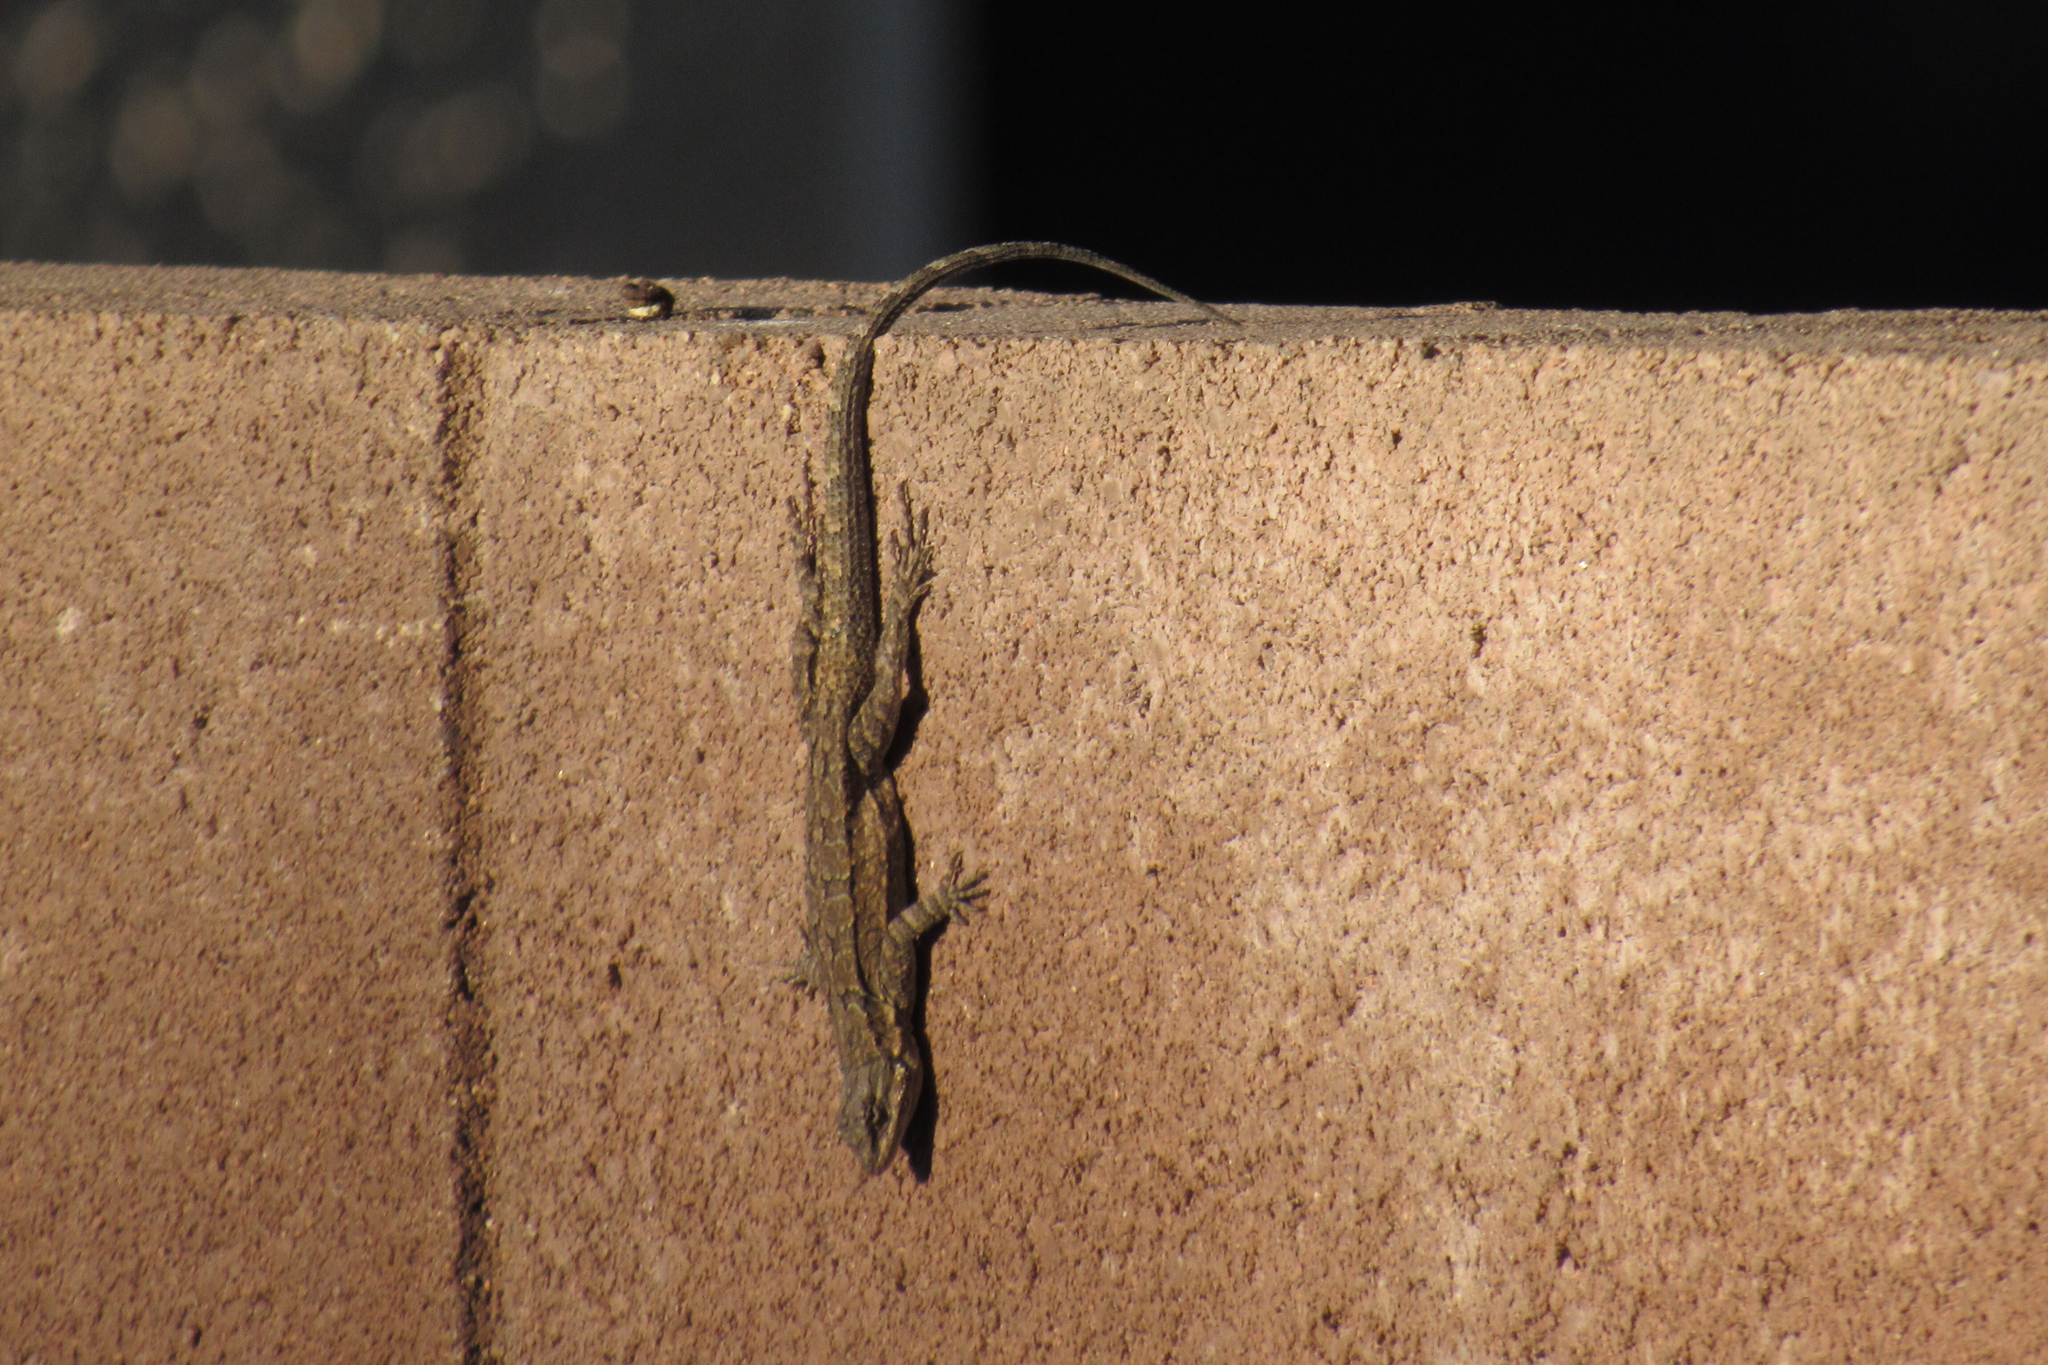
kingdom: Animalia
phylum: Chordata
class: Squamata
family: Phrynosomatidae
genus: Urosaurus
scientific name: Urosaurus ornatus
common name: Ornate tree lizard
